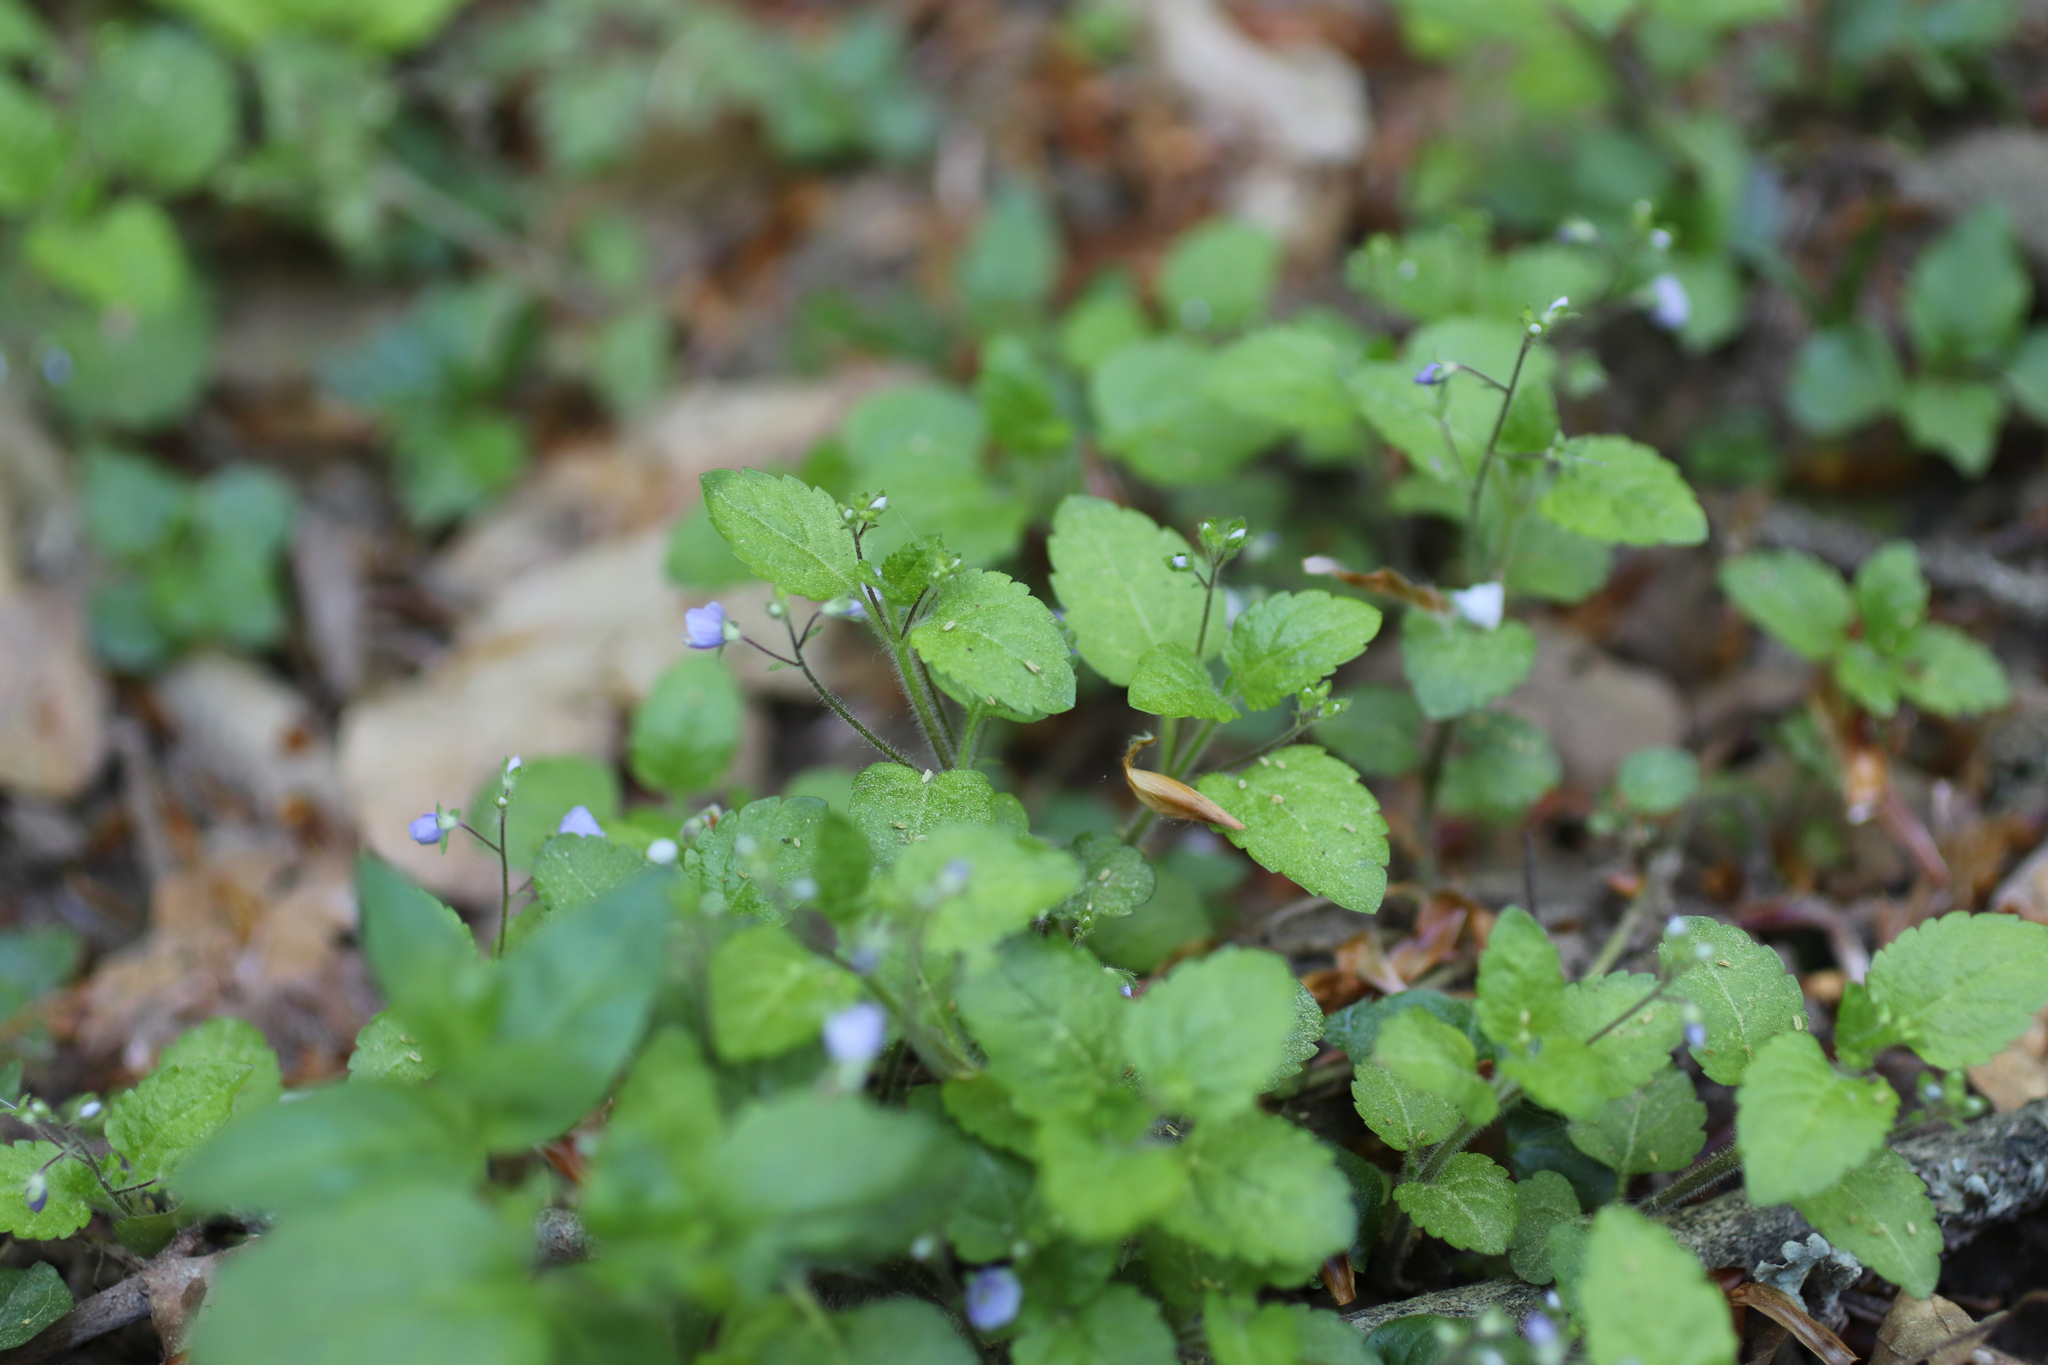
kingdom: Plantae
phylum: Tracheophyta
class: Magnoliopsida
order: Lamiales
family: Plantaginaceae
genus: Veronica
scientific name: Veronica montana
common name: Wood speedwell
